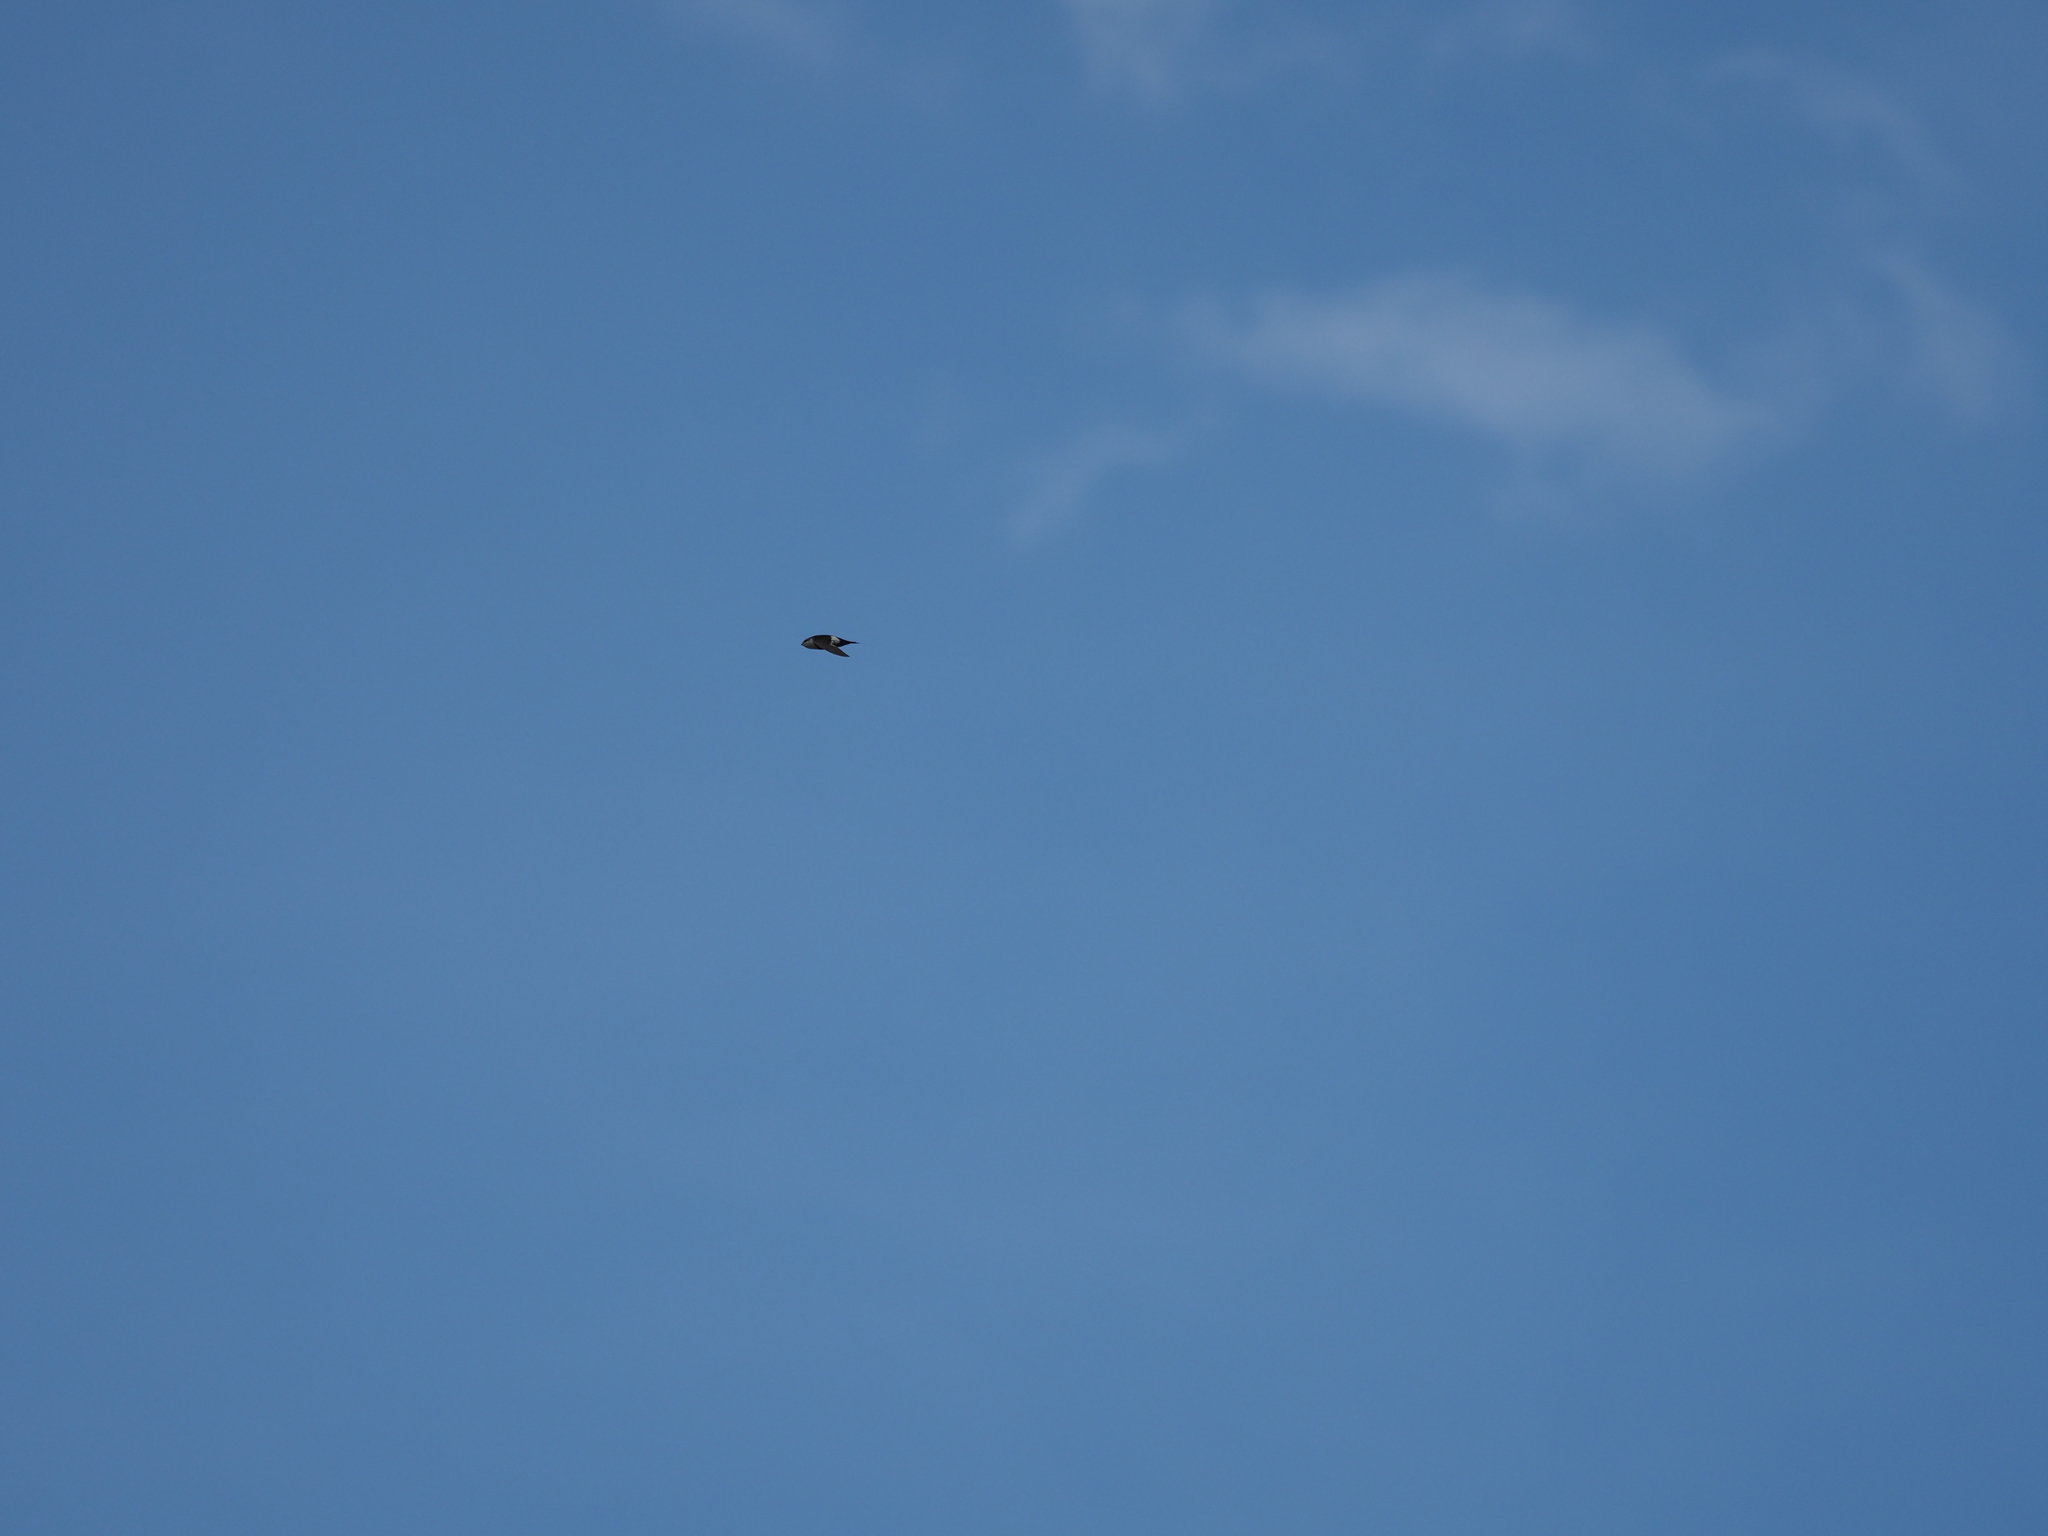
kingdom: Animalia
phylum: Chordata
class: Aves
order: Apodiformes
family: Apodidae
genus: Aeronautes
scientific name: Aeronautes saxatalis
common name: White-throated swift
